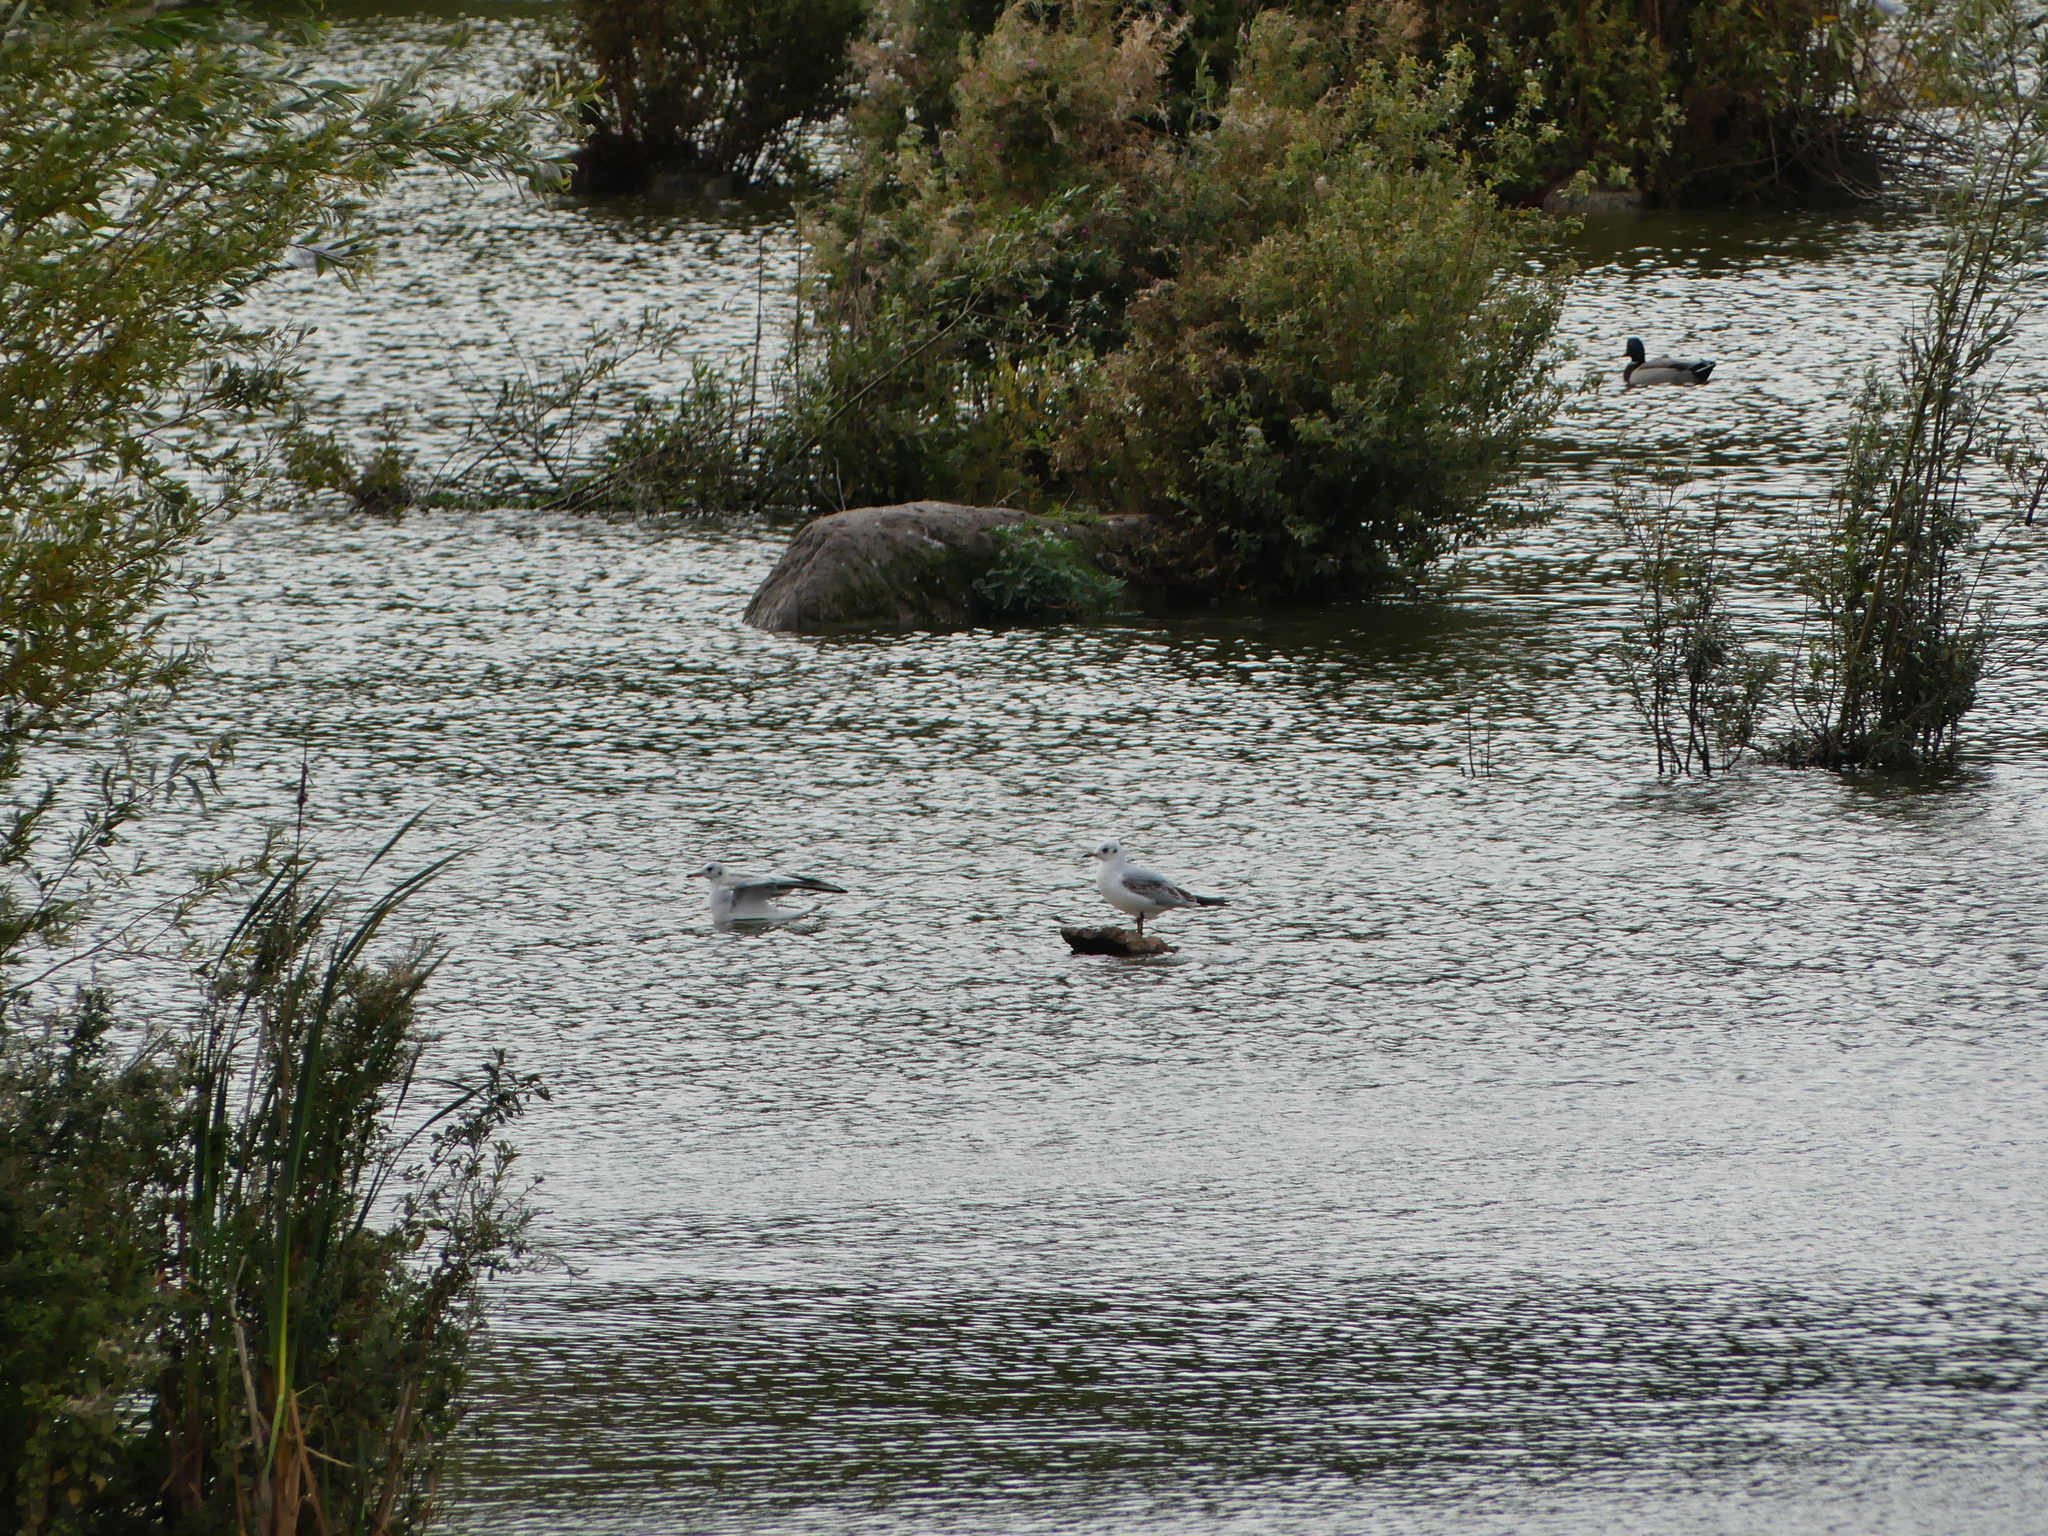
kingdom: Animalia
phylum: Chordata
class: Aves
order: Charadriiformes
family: Laridae
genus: Chroicocephalus
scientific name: Chroicocephalus ridibundus
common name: Black-headed gull
